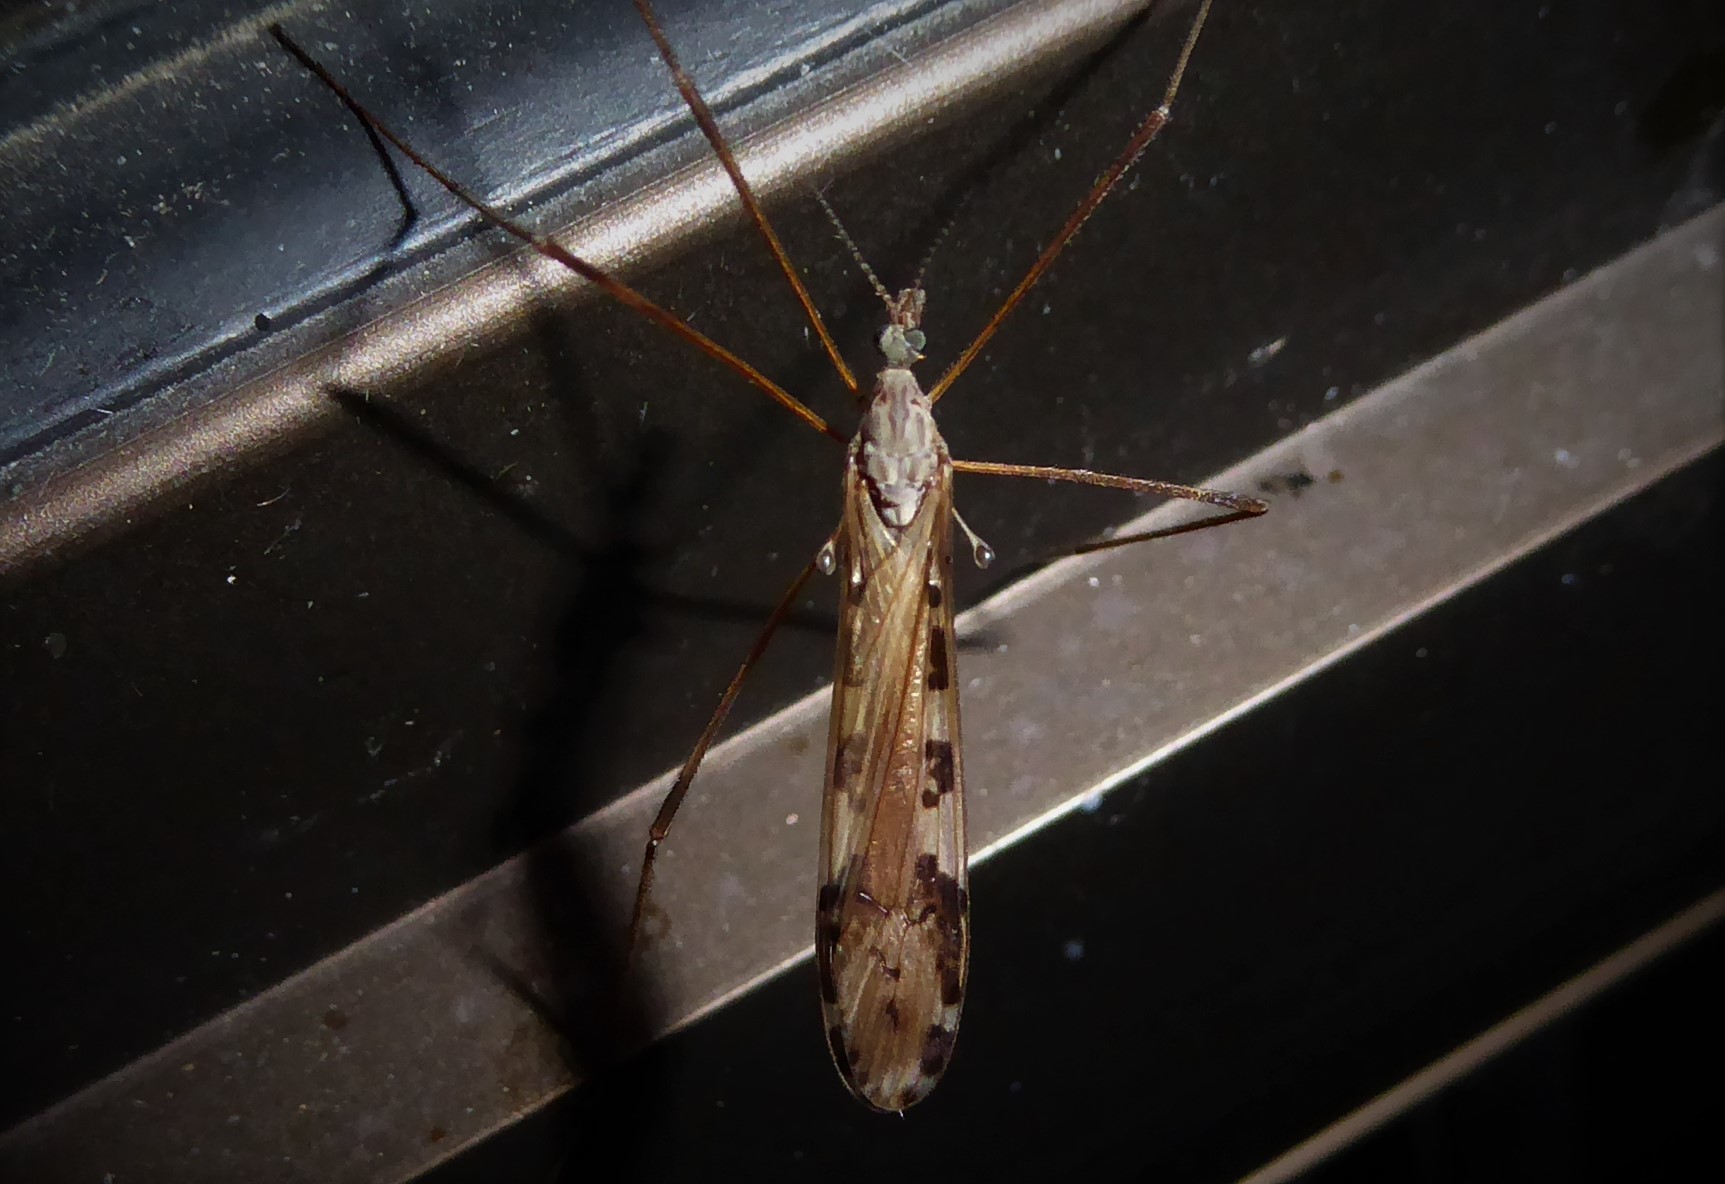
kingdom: Animalia
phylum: Arthropoda
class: Insecta
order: Diptera
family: Limoniidae
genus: Paralimnophila
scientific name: Paralimnophila skusei
